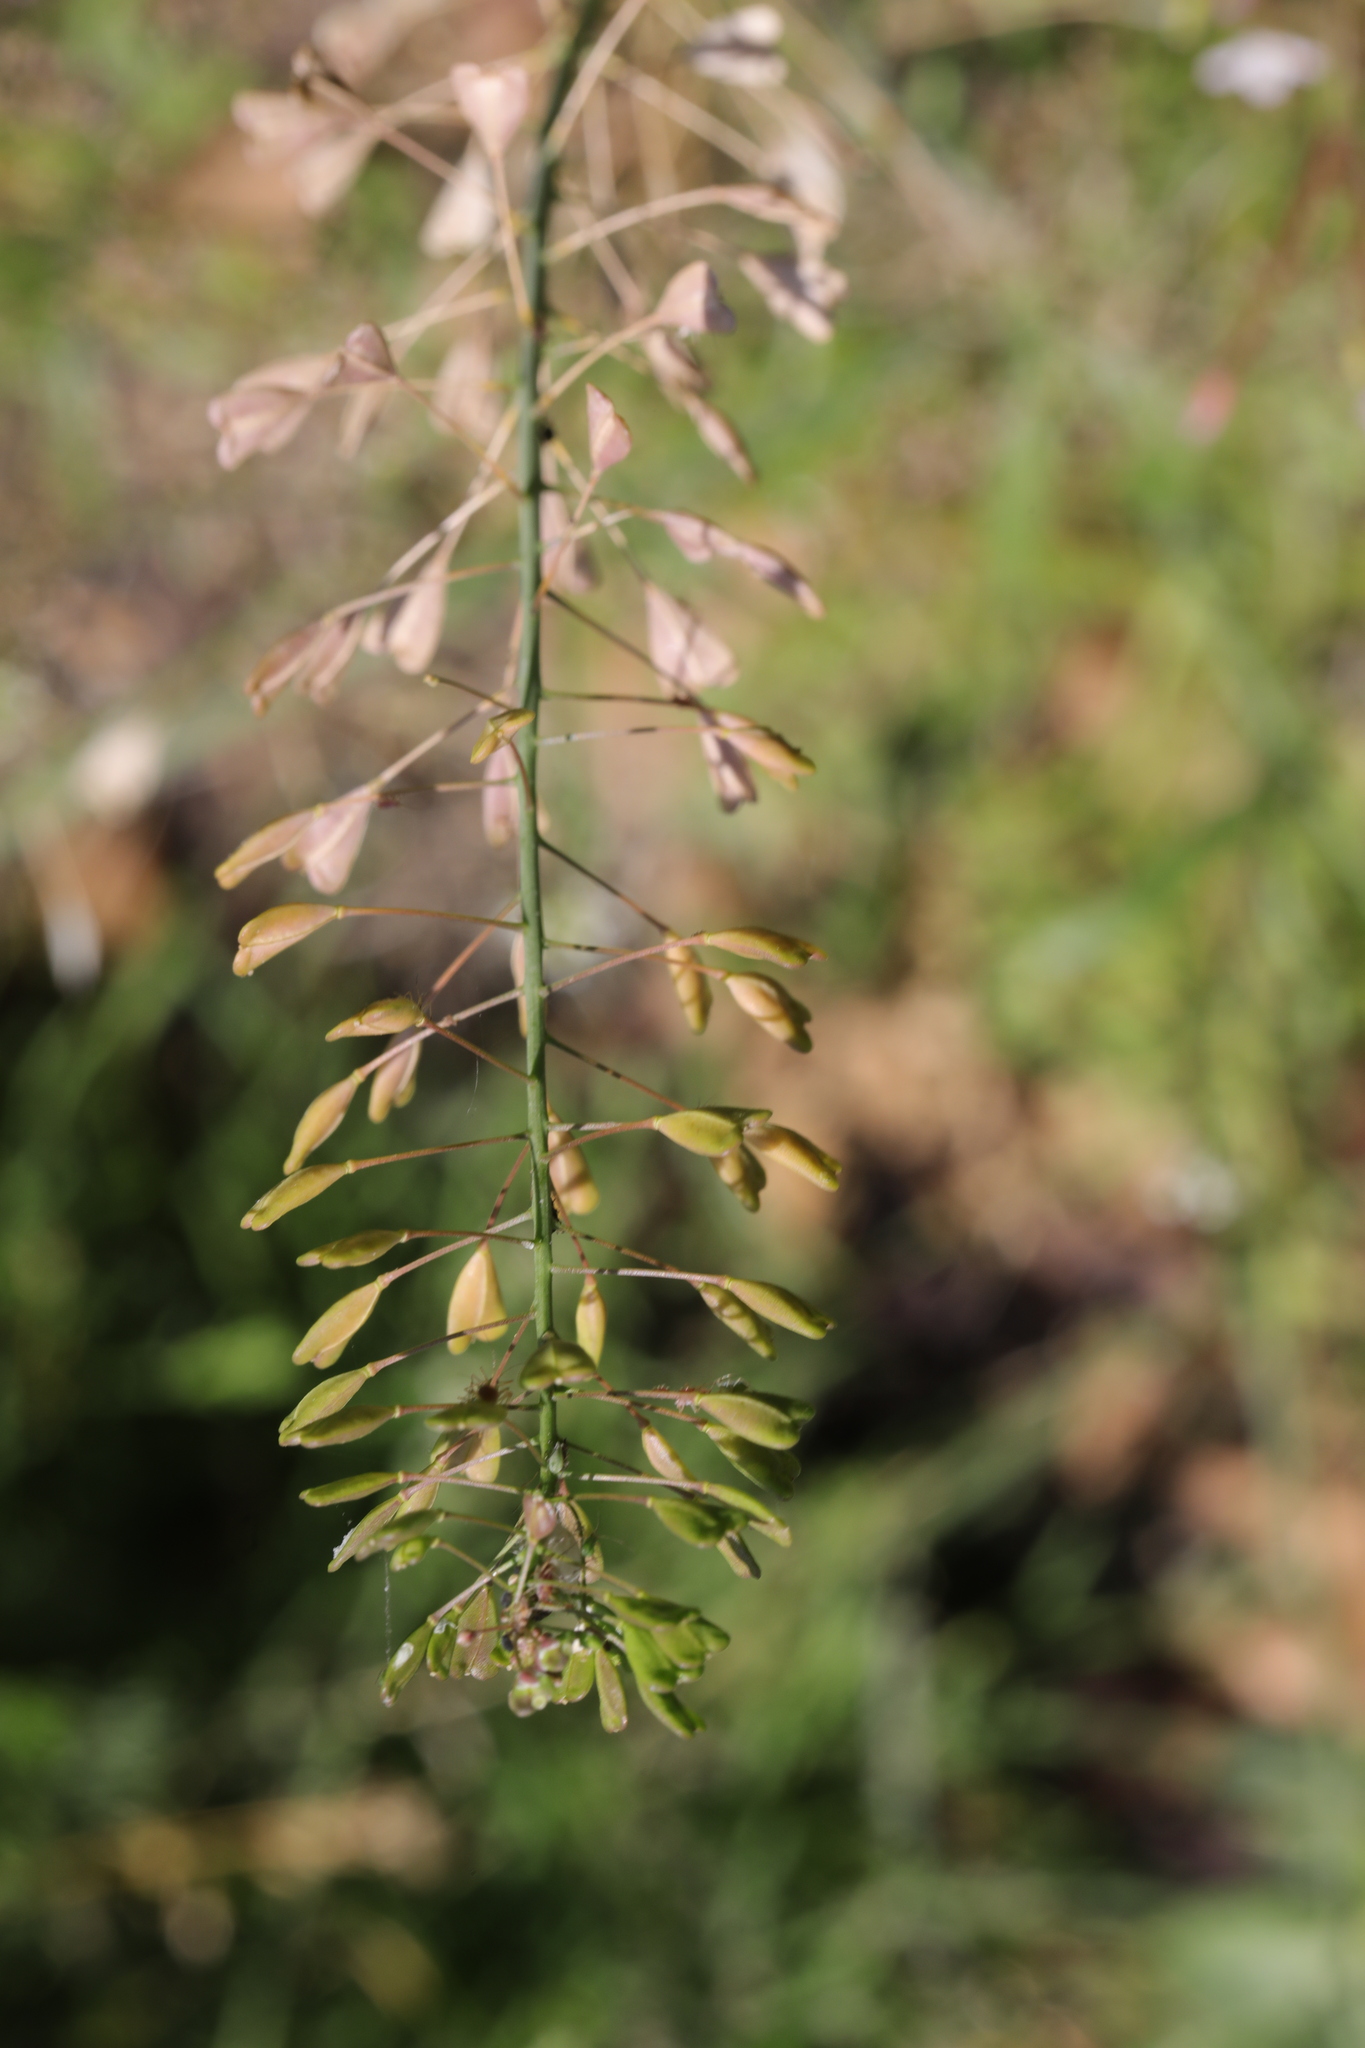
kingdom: Plantae
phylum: Tracheophyta
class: Magnoliopsida
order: Brassicales
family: Brassicaceae
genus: Capsella
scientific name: Capsella bursa-pastoris
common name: Shepherd's purse
